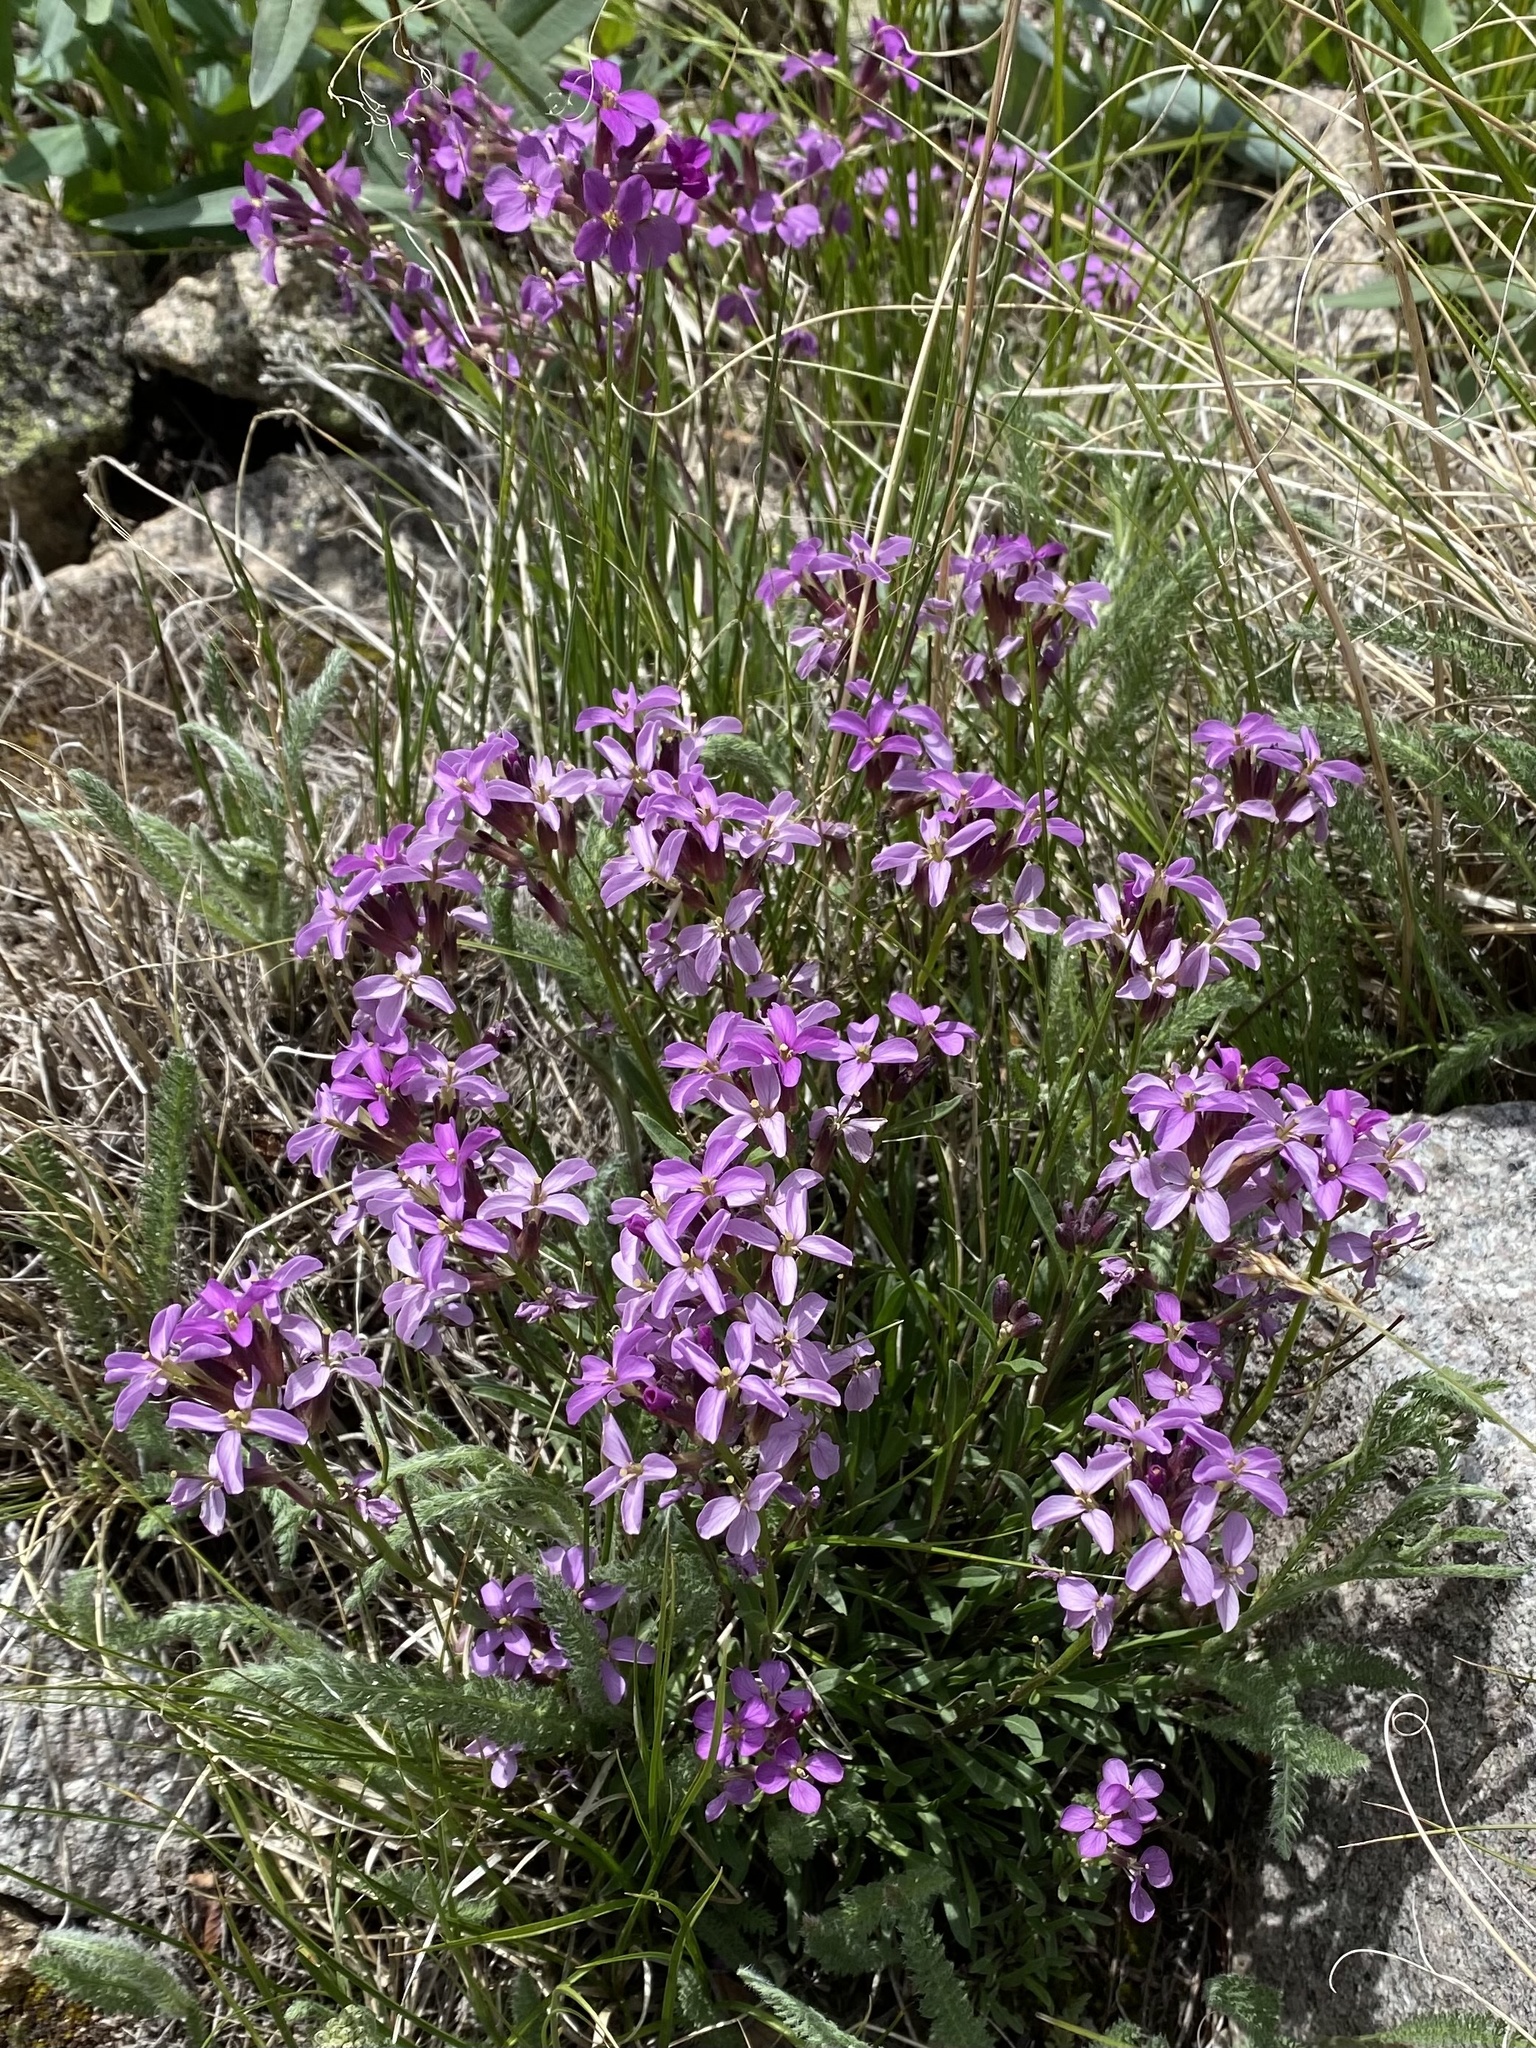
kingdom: Plantae
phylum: Tracheophyta
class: Magnoliopsida
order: Brassicales
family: Brassicaceae
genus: Erysimum
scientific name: Erysimum capitatum
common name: Western wallflower
